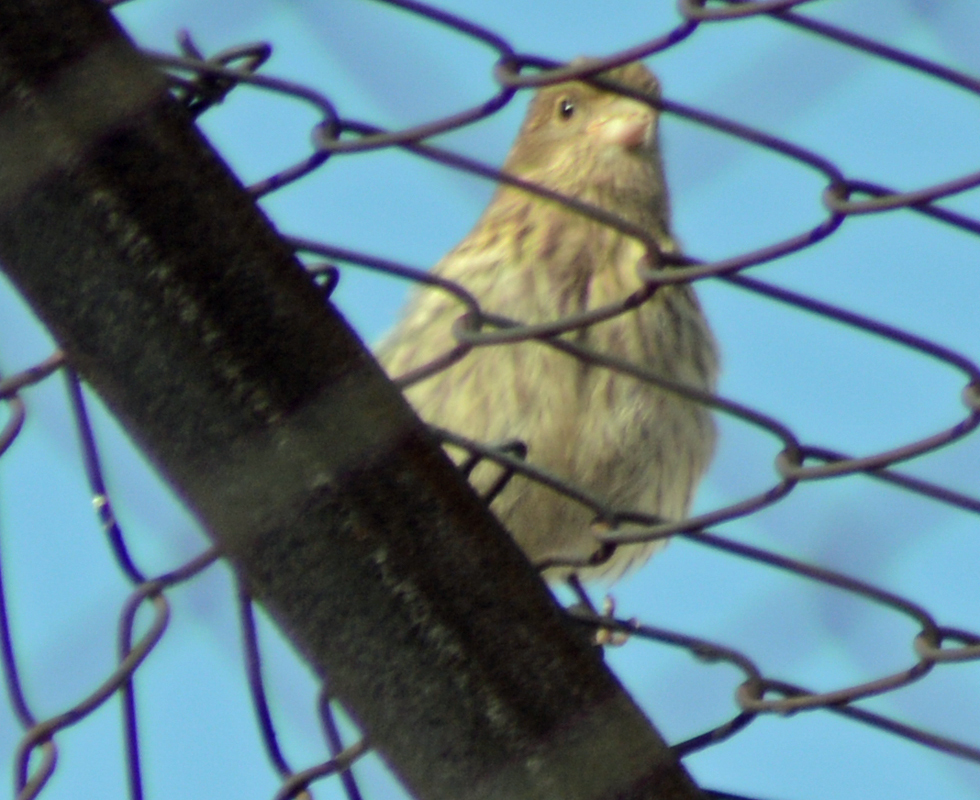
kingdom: Animalia
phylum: Chordata
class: Aves
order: Passeriformes
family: Fringillidae
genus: Haemorhous
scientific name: Haemorhous mexicanus
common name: House finch
